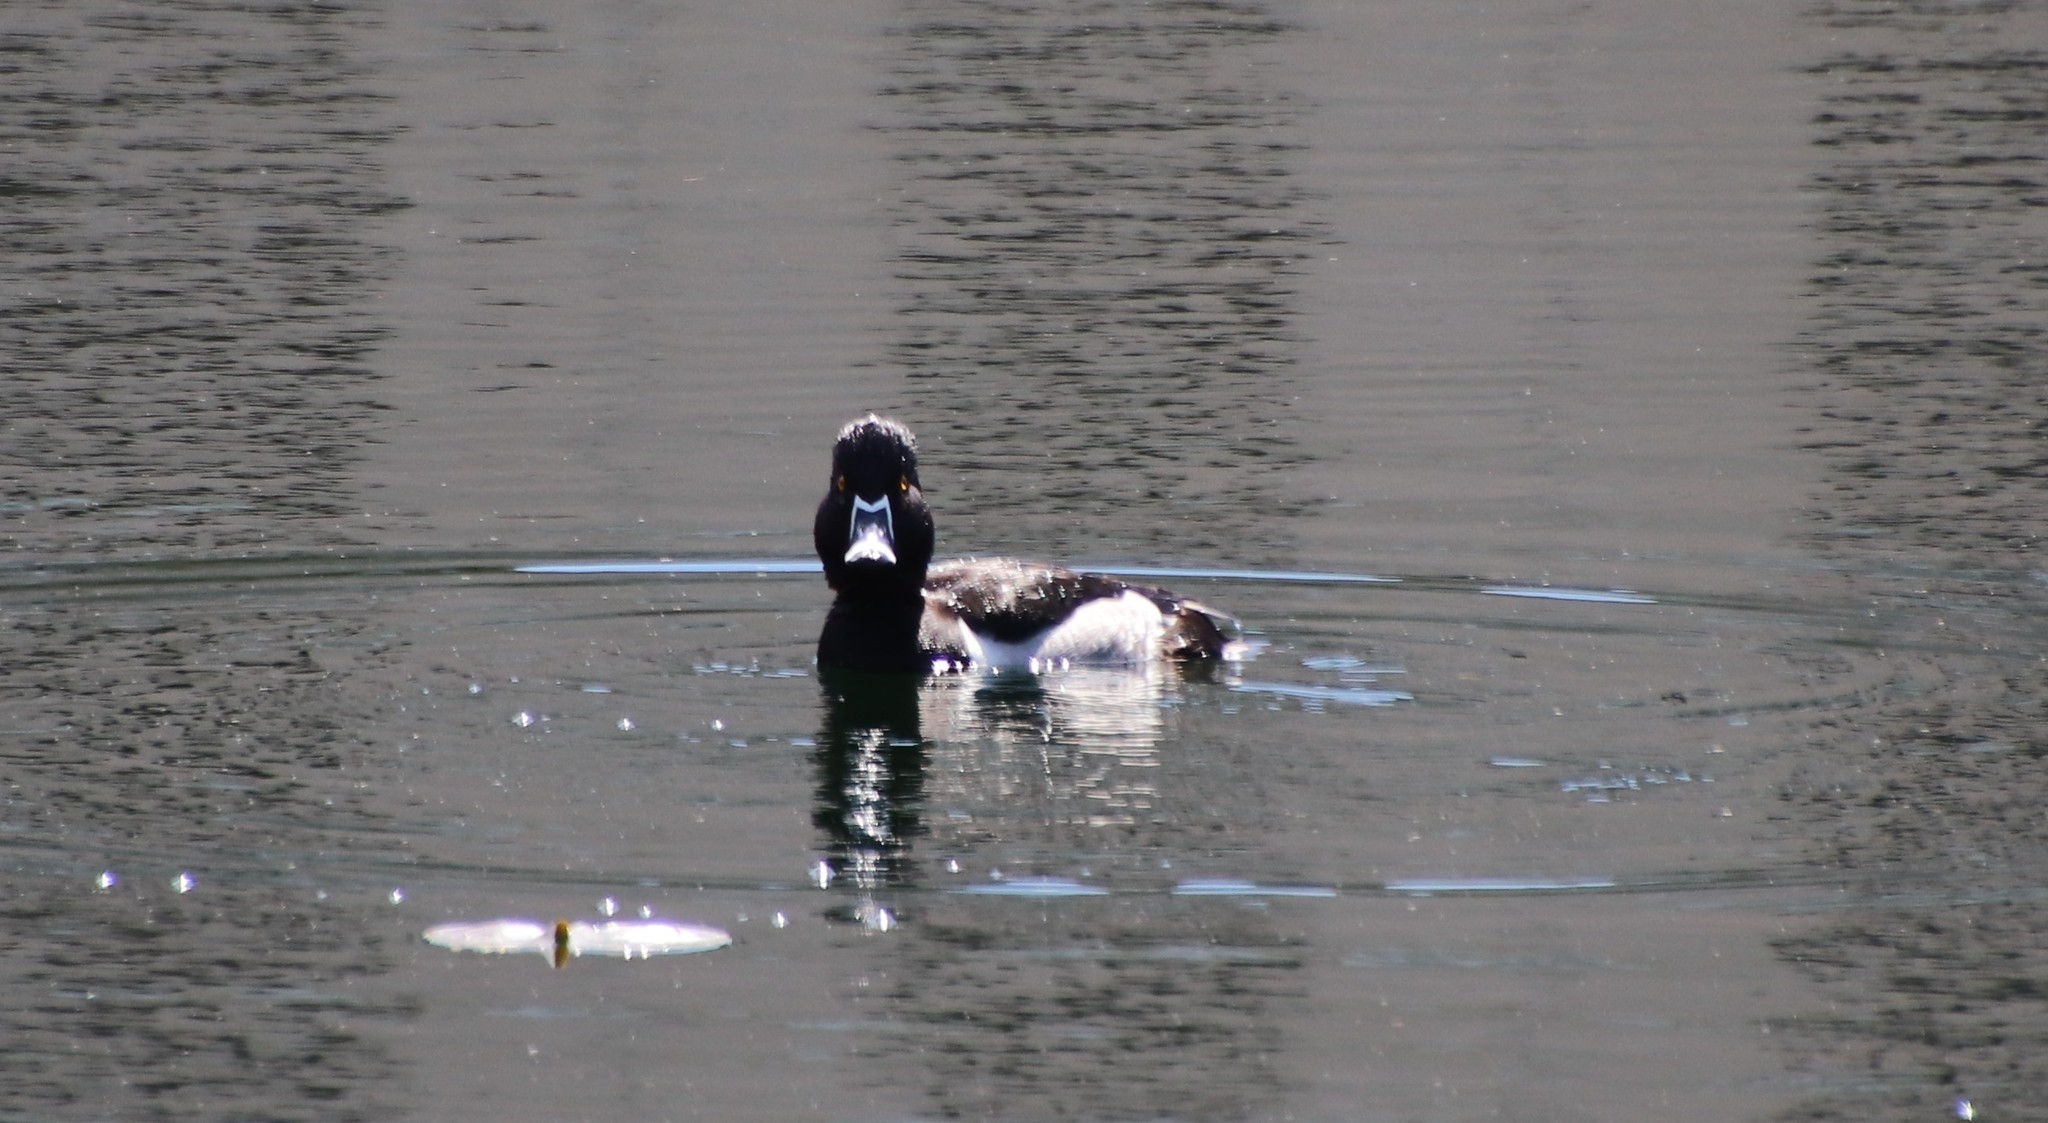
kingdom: Animalia
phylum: Chordata
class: Aves
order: Anseriformes
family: Anatidae
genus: Aythya
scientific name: Aythya collaris
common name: Ring-necked duck
